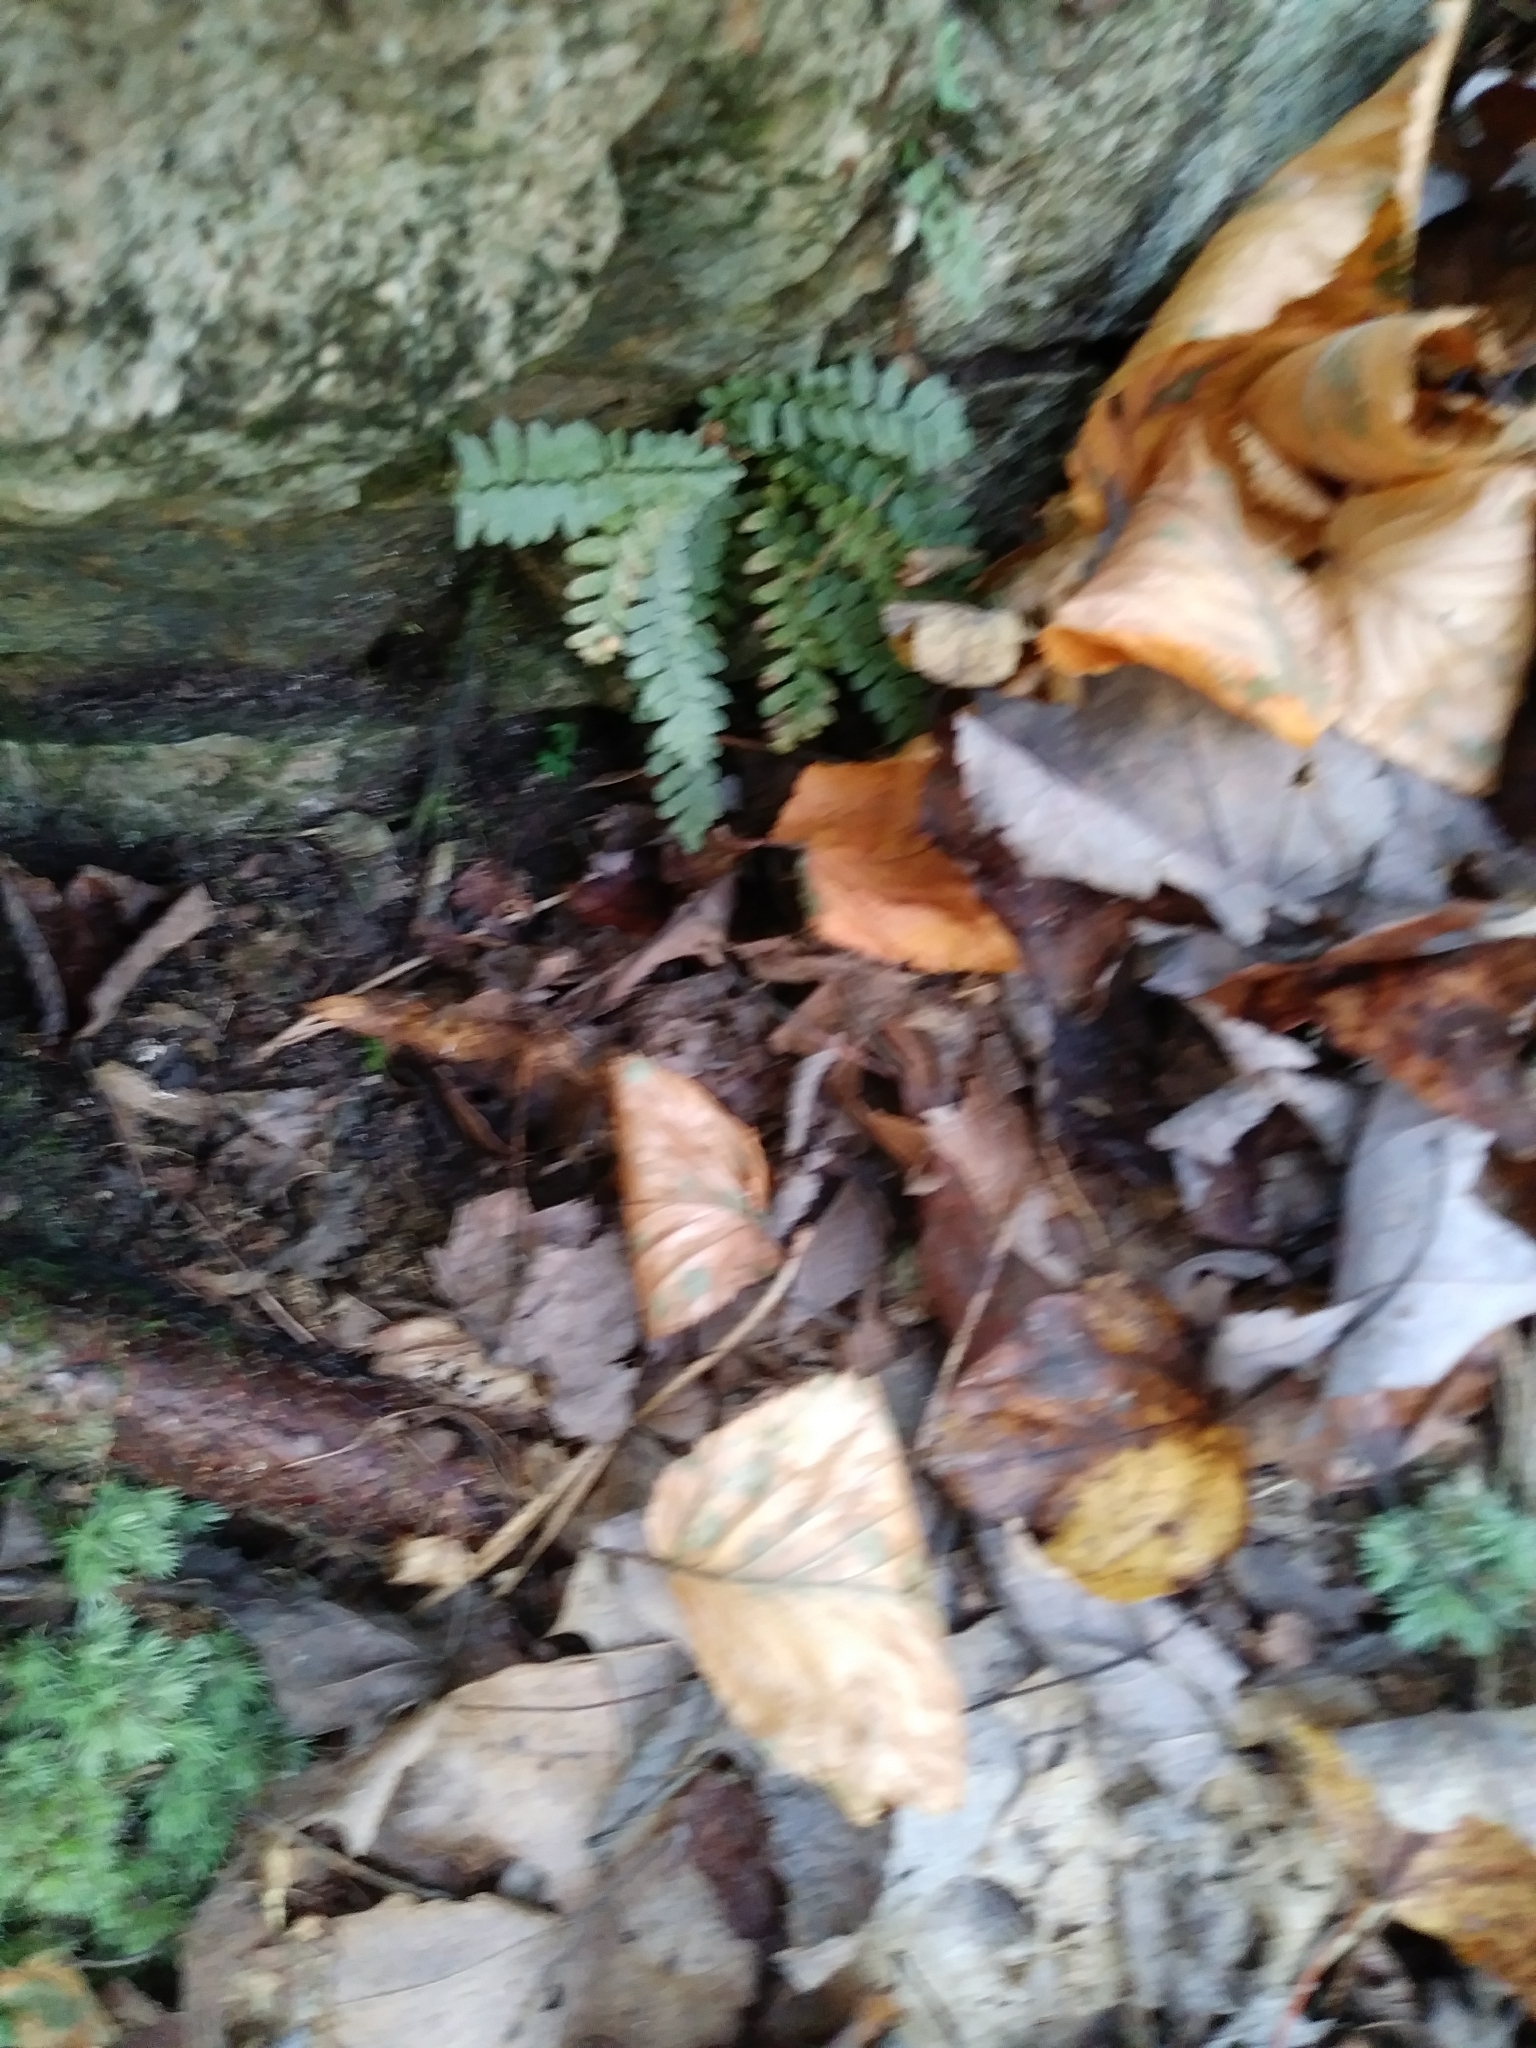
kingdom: Plantae
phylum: Tracheophyta
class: Polypodiopsida
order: Polypodiales
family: Aspleniaceae
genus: Asplenium
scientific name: Asplenium platyneuron
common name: Ebony spleenwort
